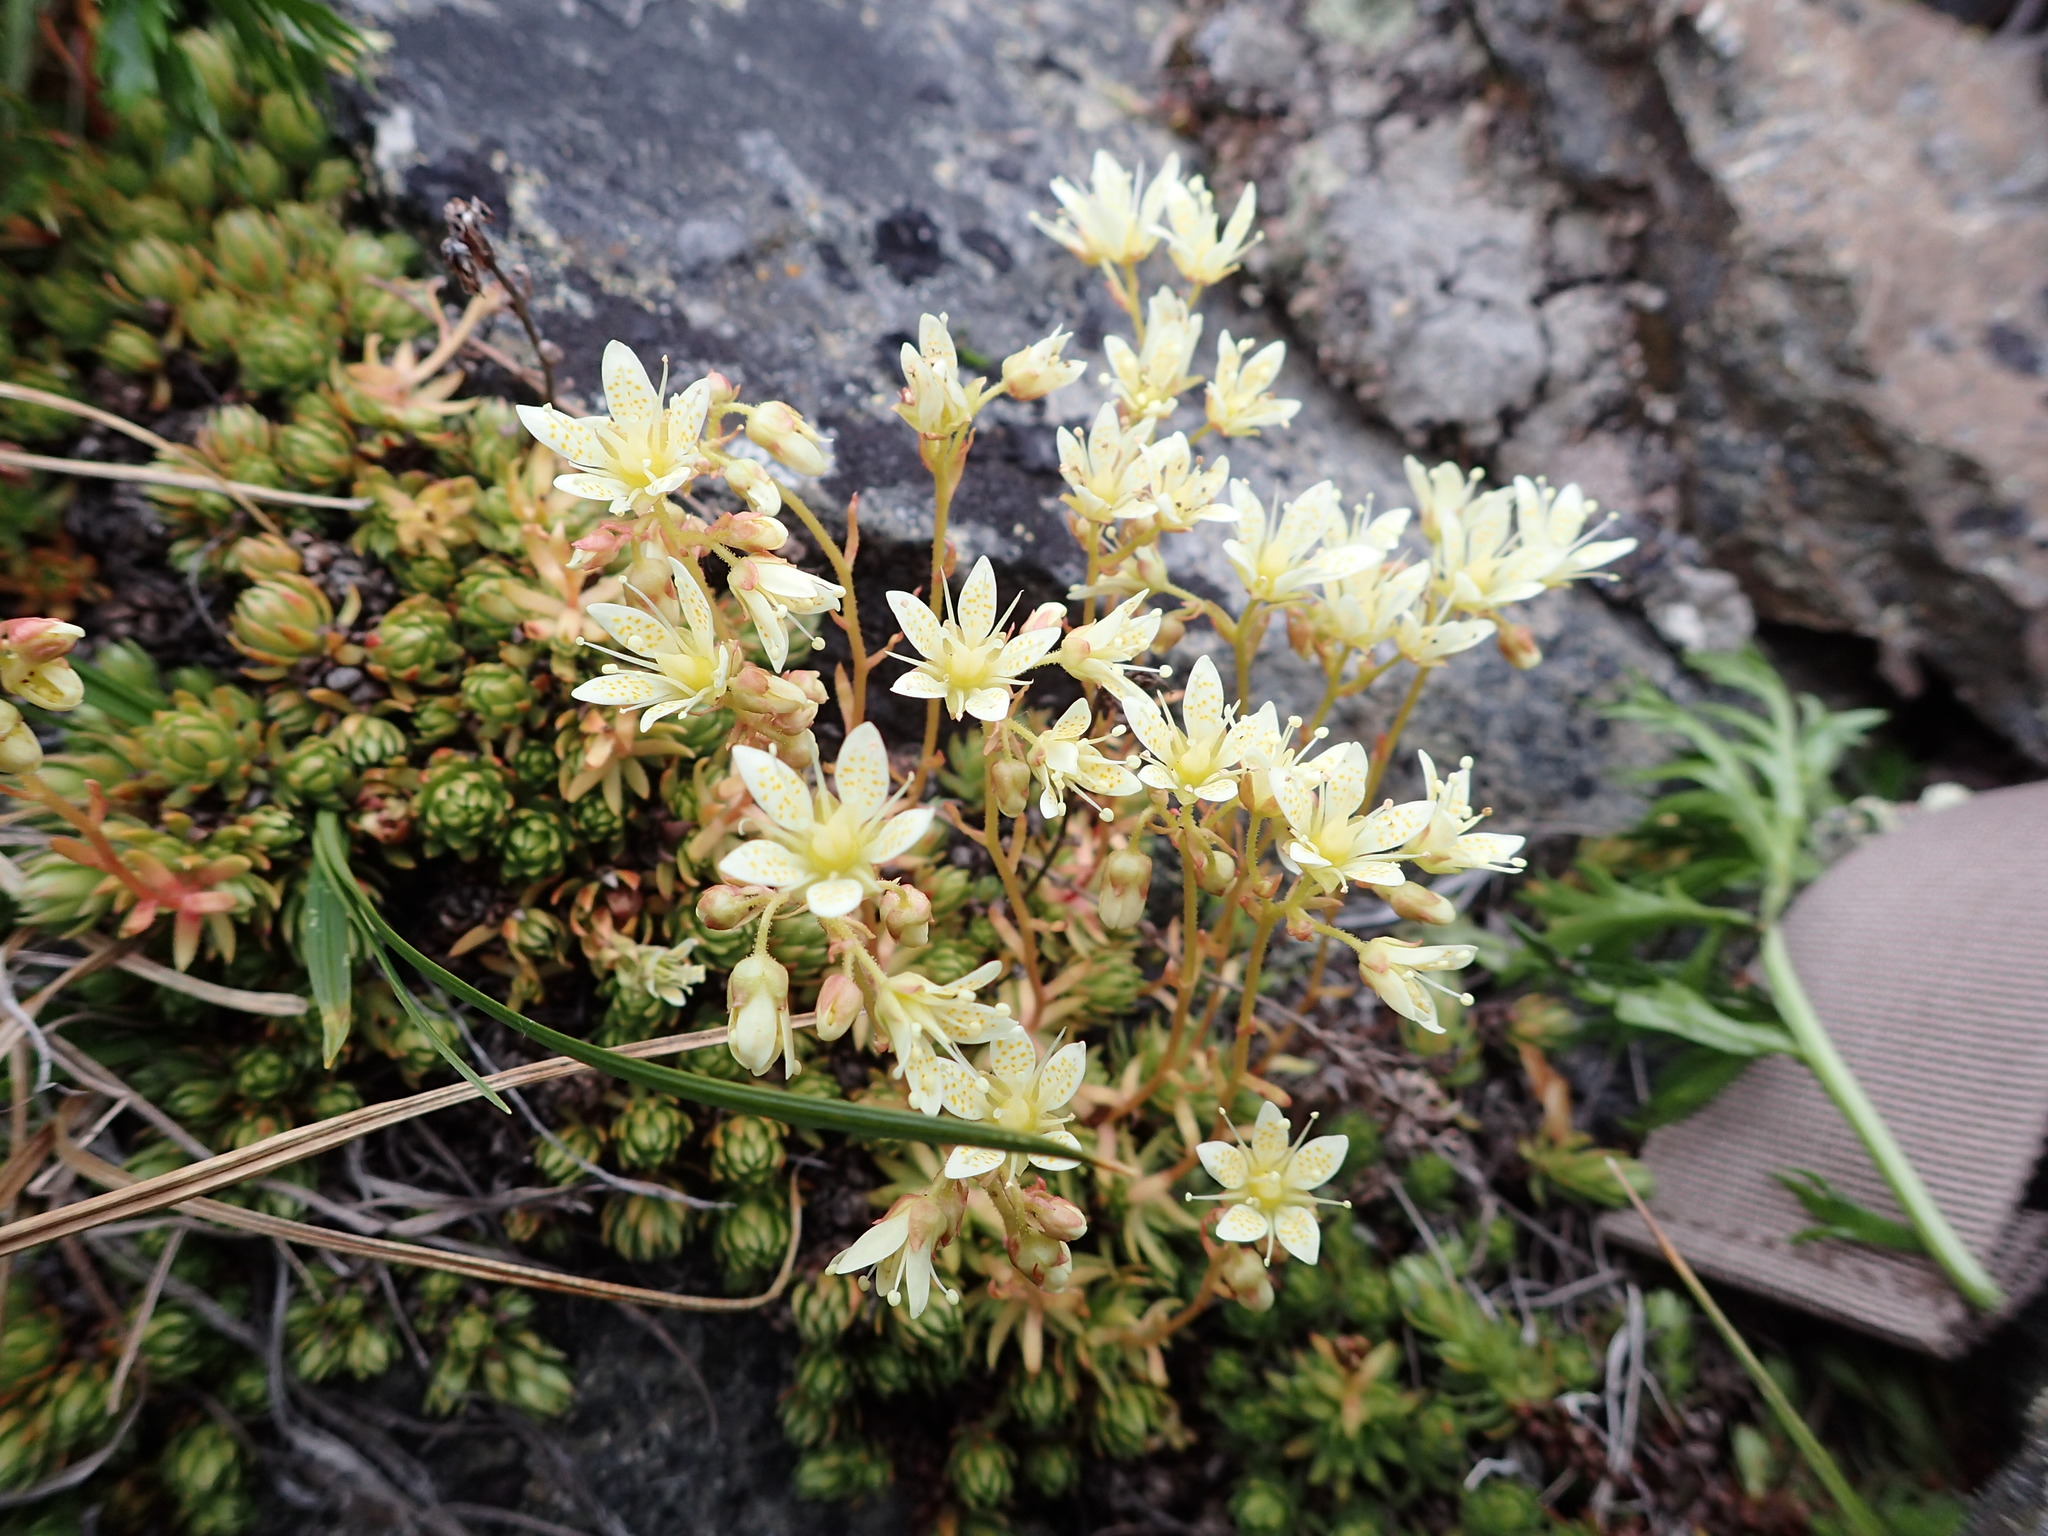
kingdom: Plantae
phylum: Tracheophyta
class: Magnoliopsida
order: Saxifragales
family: Saxifragaceae
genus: Saxifraga
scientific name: Saxifraga bronchialis
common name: Matted saxifrage
